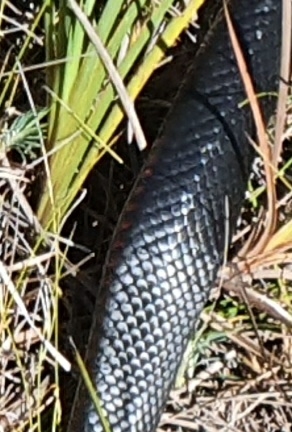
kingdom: Animalia
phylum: Chordata
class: Squamata
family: Elapidae
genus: Pseudechis
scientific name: Pseudechis porphyriacus
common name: Australian black snake
